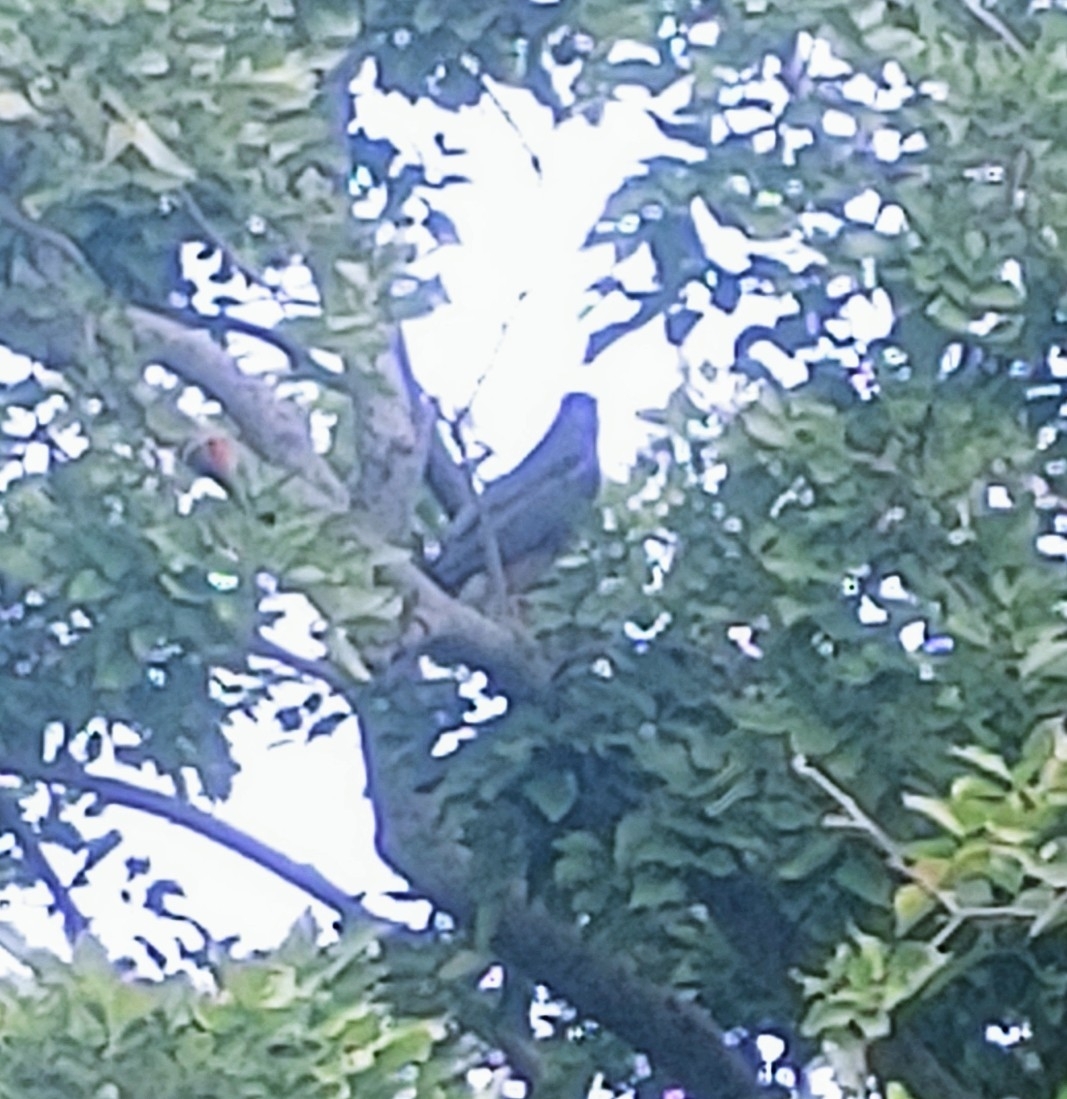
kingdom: Animalia
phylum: Chordata
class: Aves
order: Accipitriformes
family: Accipitridae
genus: Accipiter
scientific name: Accipiter cooperii
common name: Cooper's hawk
